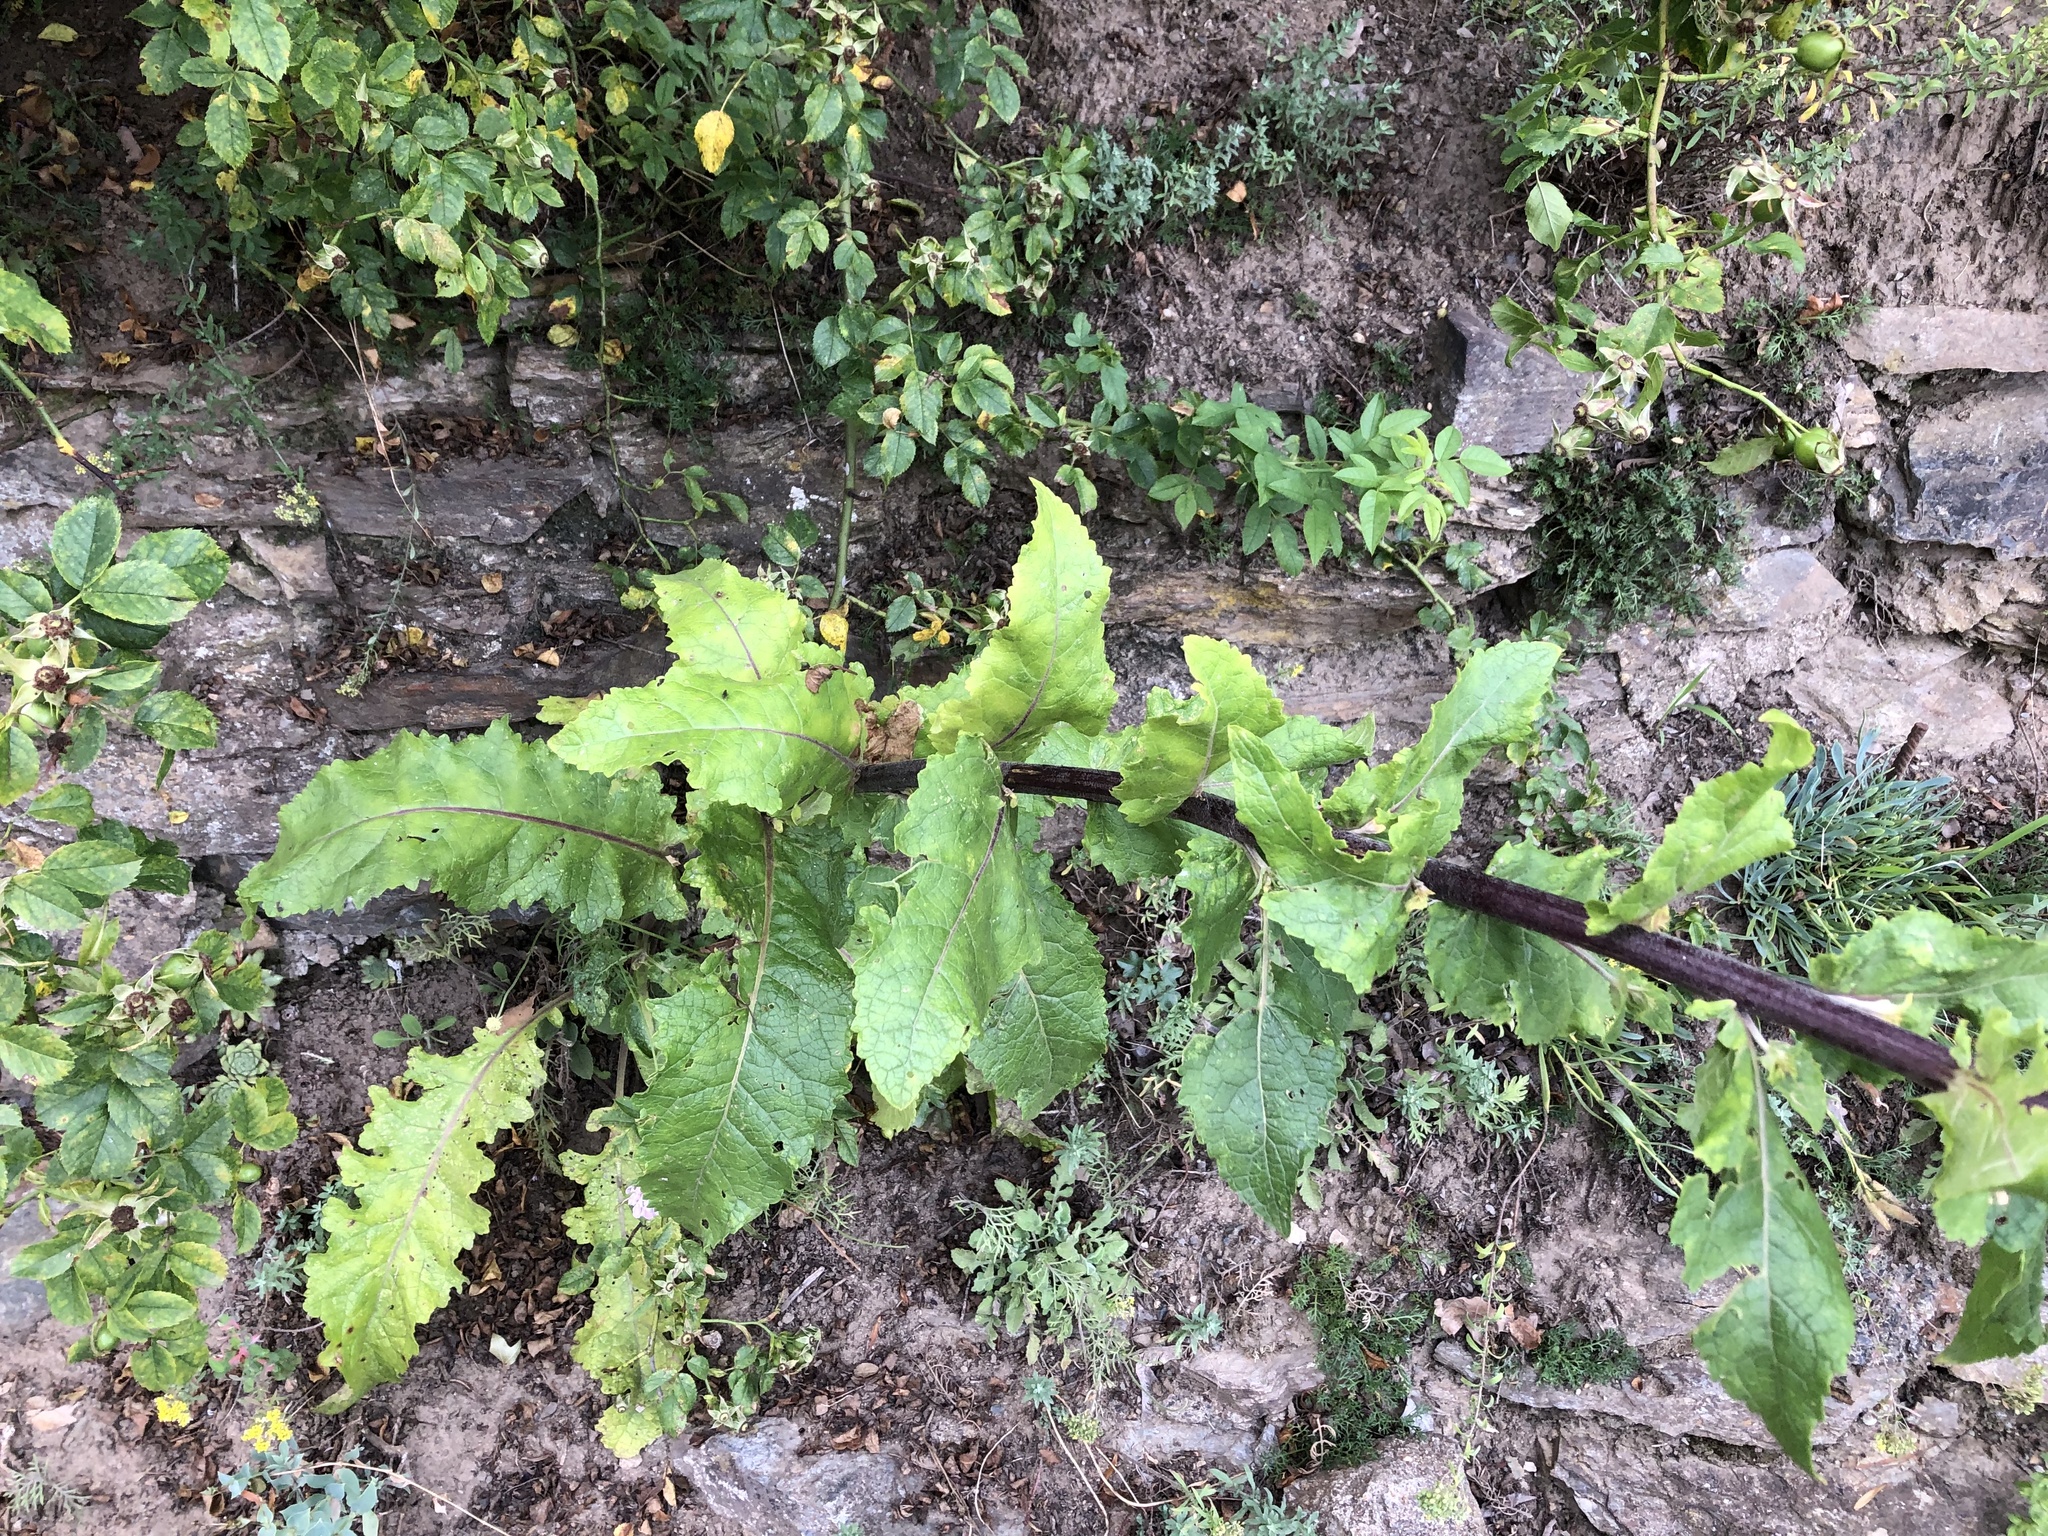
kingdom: Plantae
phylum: Tracheophyta
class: Magnoliopsida
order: Lamiales
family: Scrophulariaceae
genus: Verbascum
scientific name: Verbascum lychnitis
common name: White mullein
